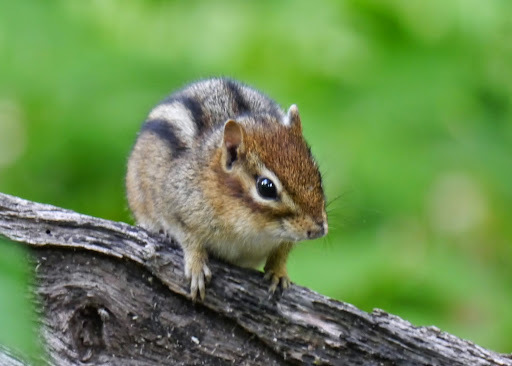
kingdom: Animalia
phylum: Chordata
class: Mammalia
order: Rodentia
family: Sciuridae
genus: Tamias
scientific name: Tamias striatus
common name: Eastern chipmunk
